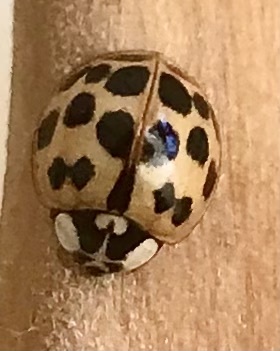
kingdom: Animalia
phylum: Arthropoda
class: Insecta
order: Coleoptera
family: Coccinellidae
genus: Harmonia
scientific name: Harmonia axyridis
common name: Harlequin ladybird
